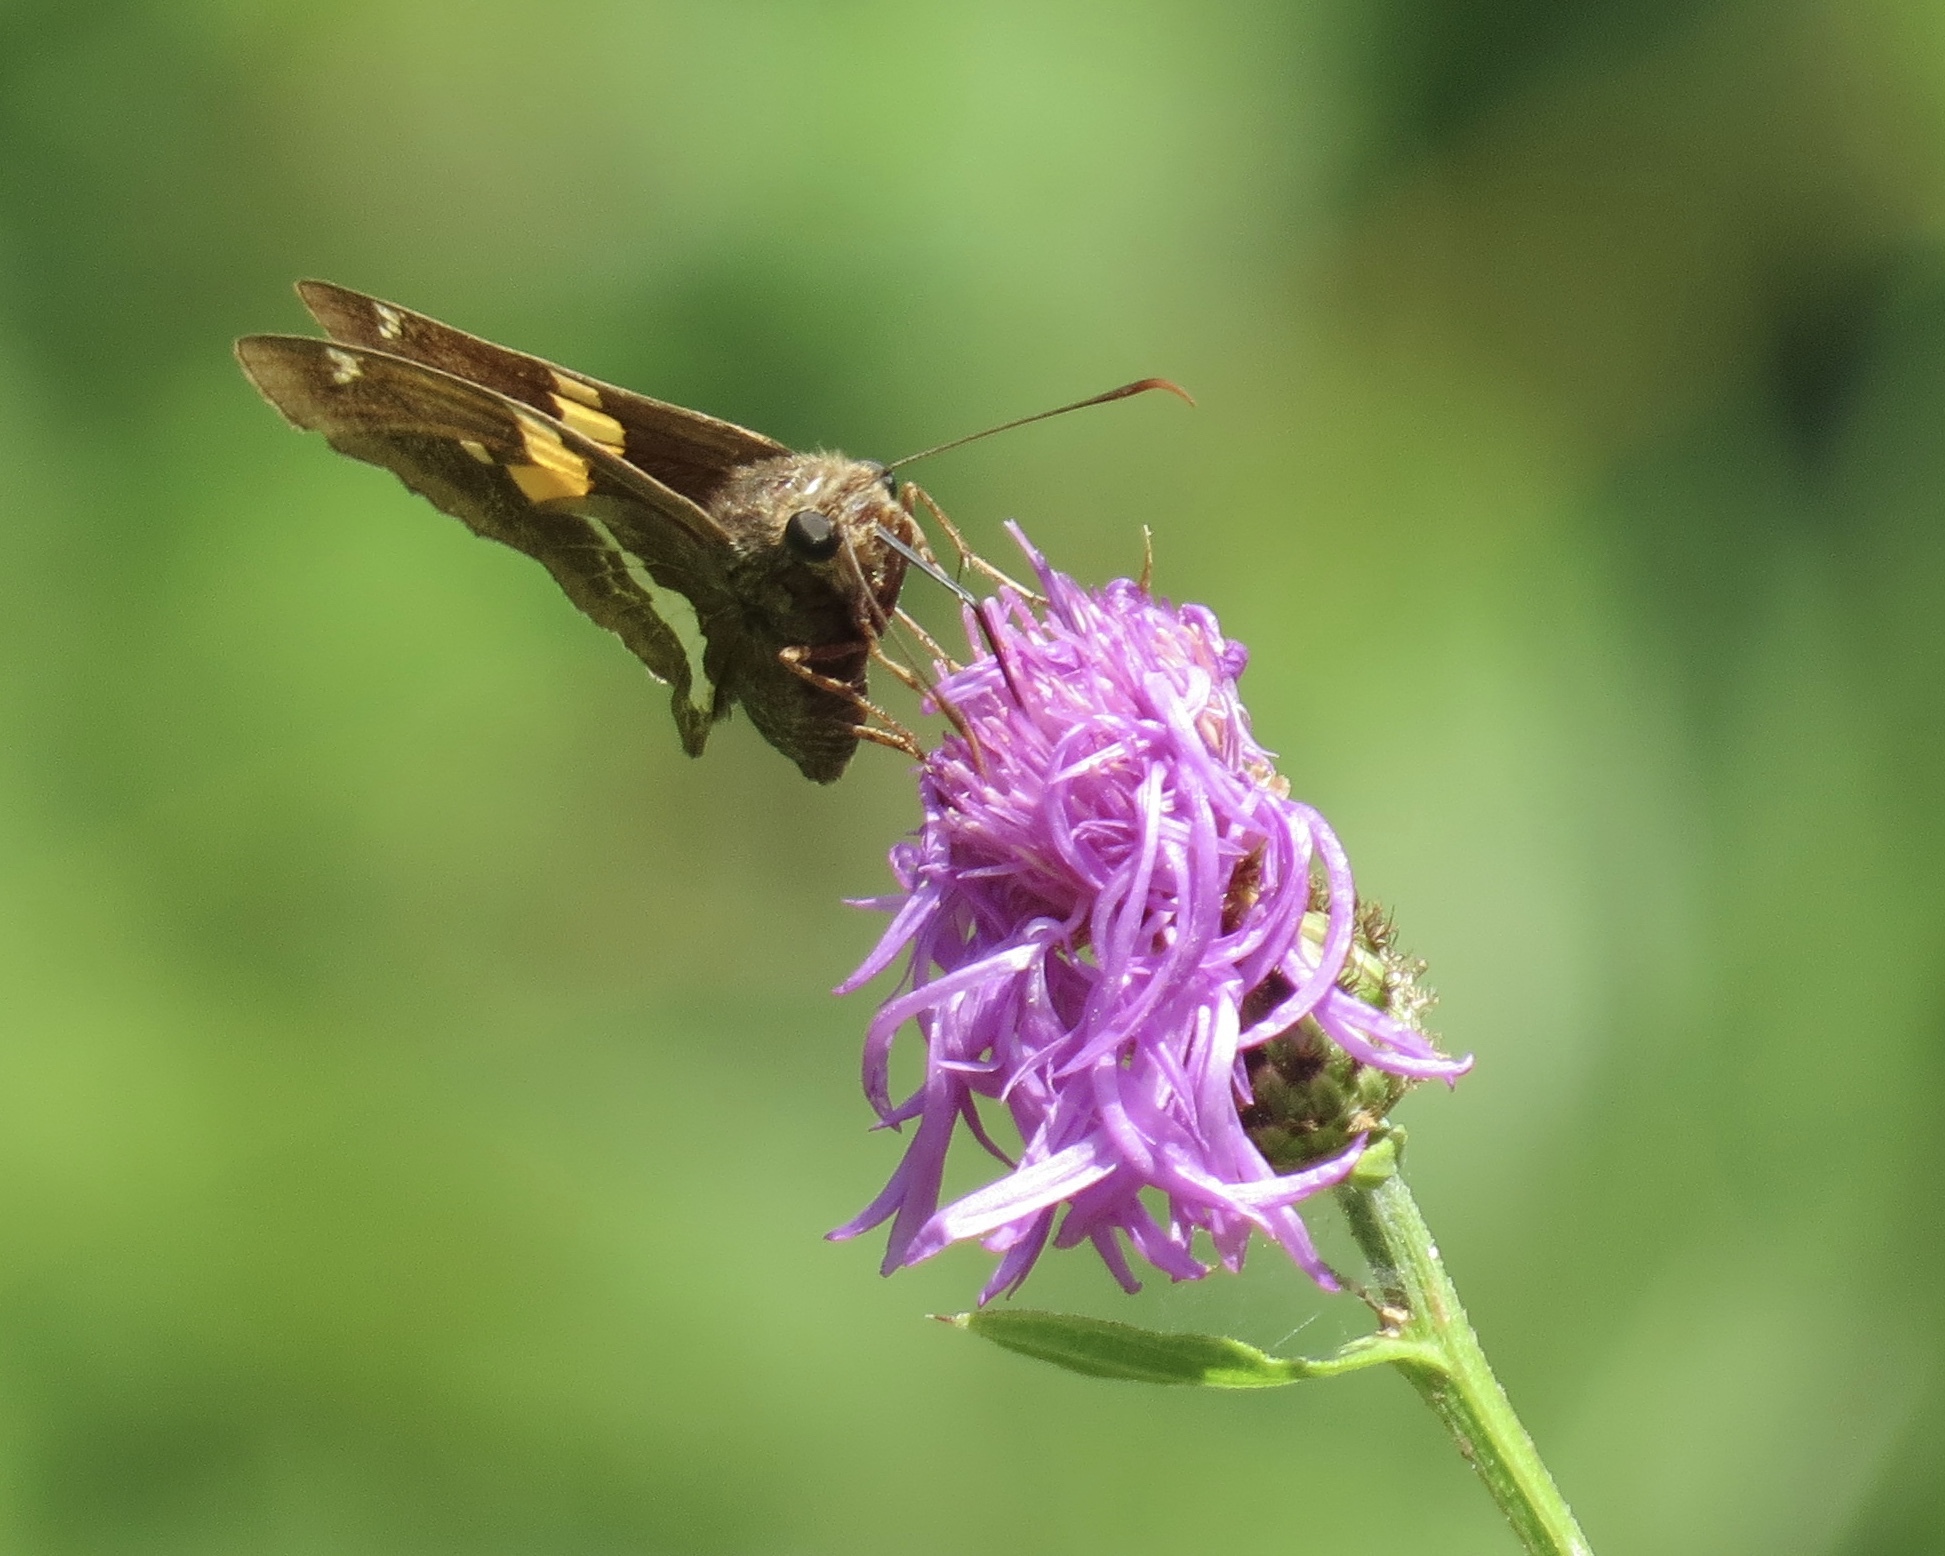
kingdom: Animalia
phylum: Arthropoda
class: Insecta
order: Lepidoptera
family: Hesperiidae
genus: Epargyreus
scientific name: Epargyreus clarus
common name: Silver-spotted skipper
